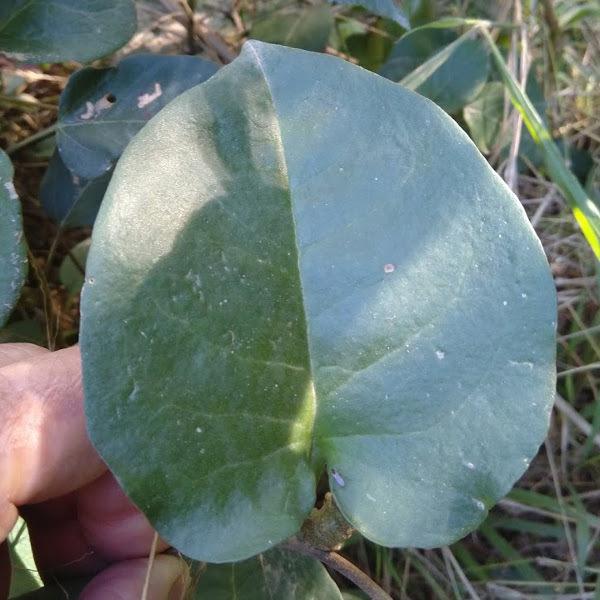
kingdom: Plantae
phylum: Tracheophyta
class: Magnoliopsida
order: Caryophyllales
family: Basellaceae
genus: Anredera
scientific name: Anredera cordifolia
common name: Heartleaf madeiravine
